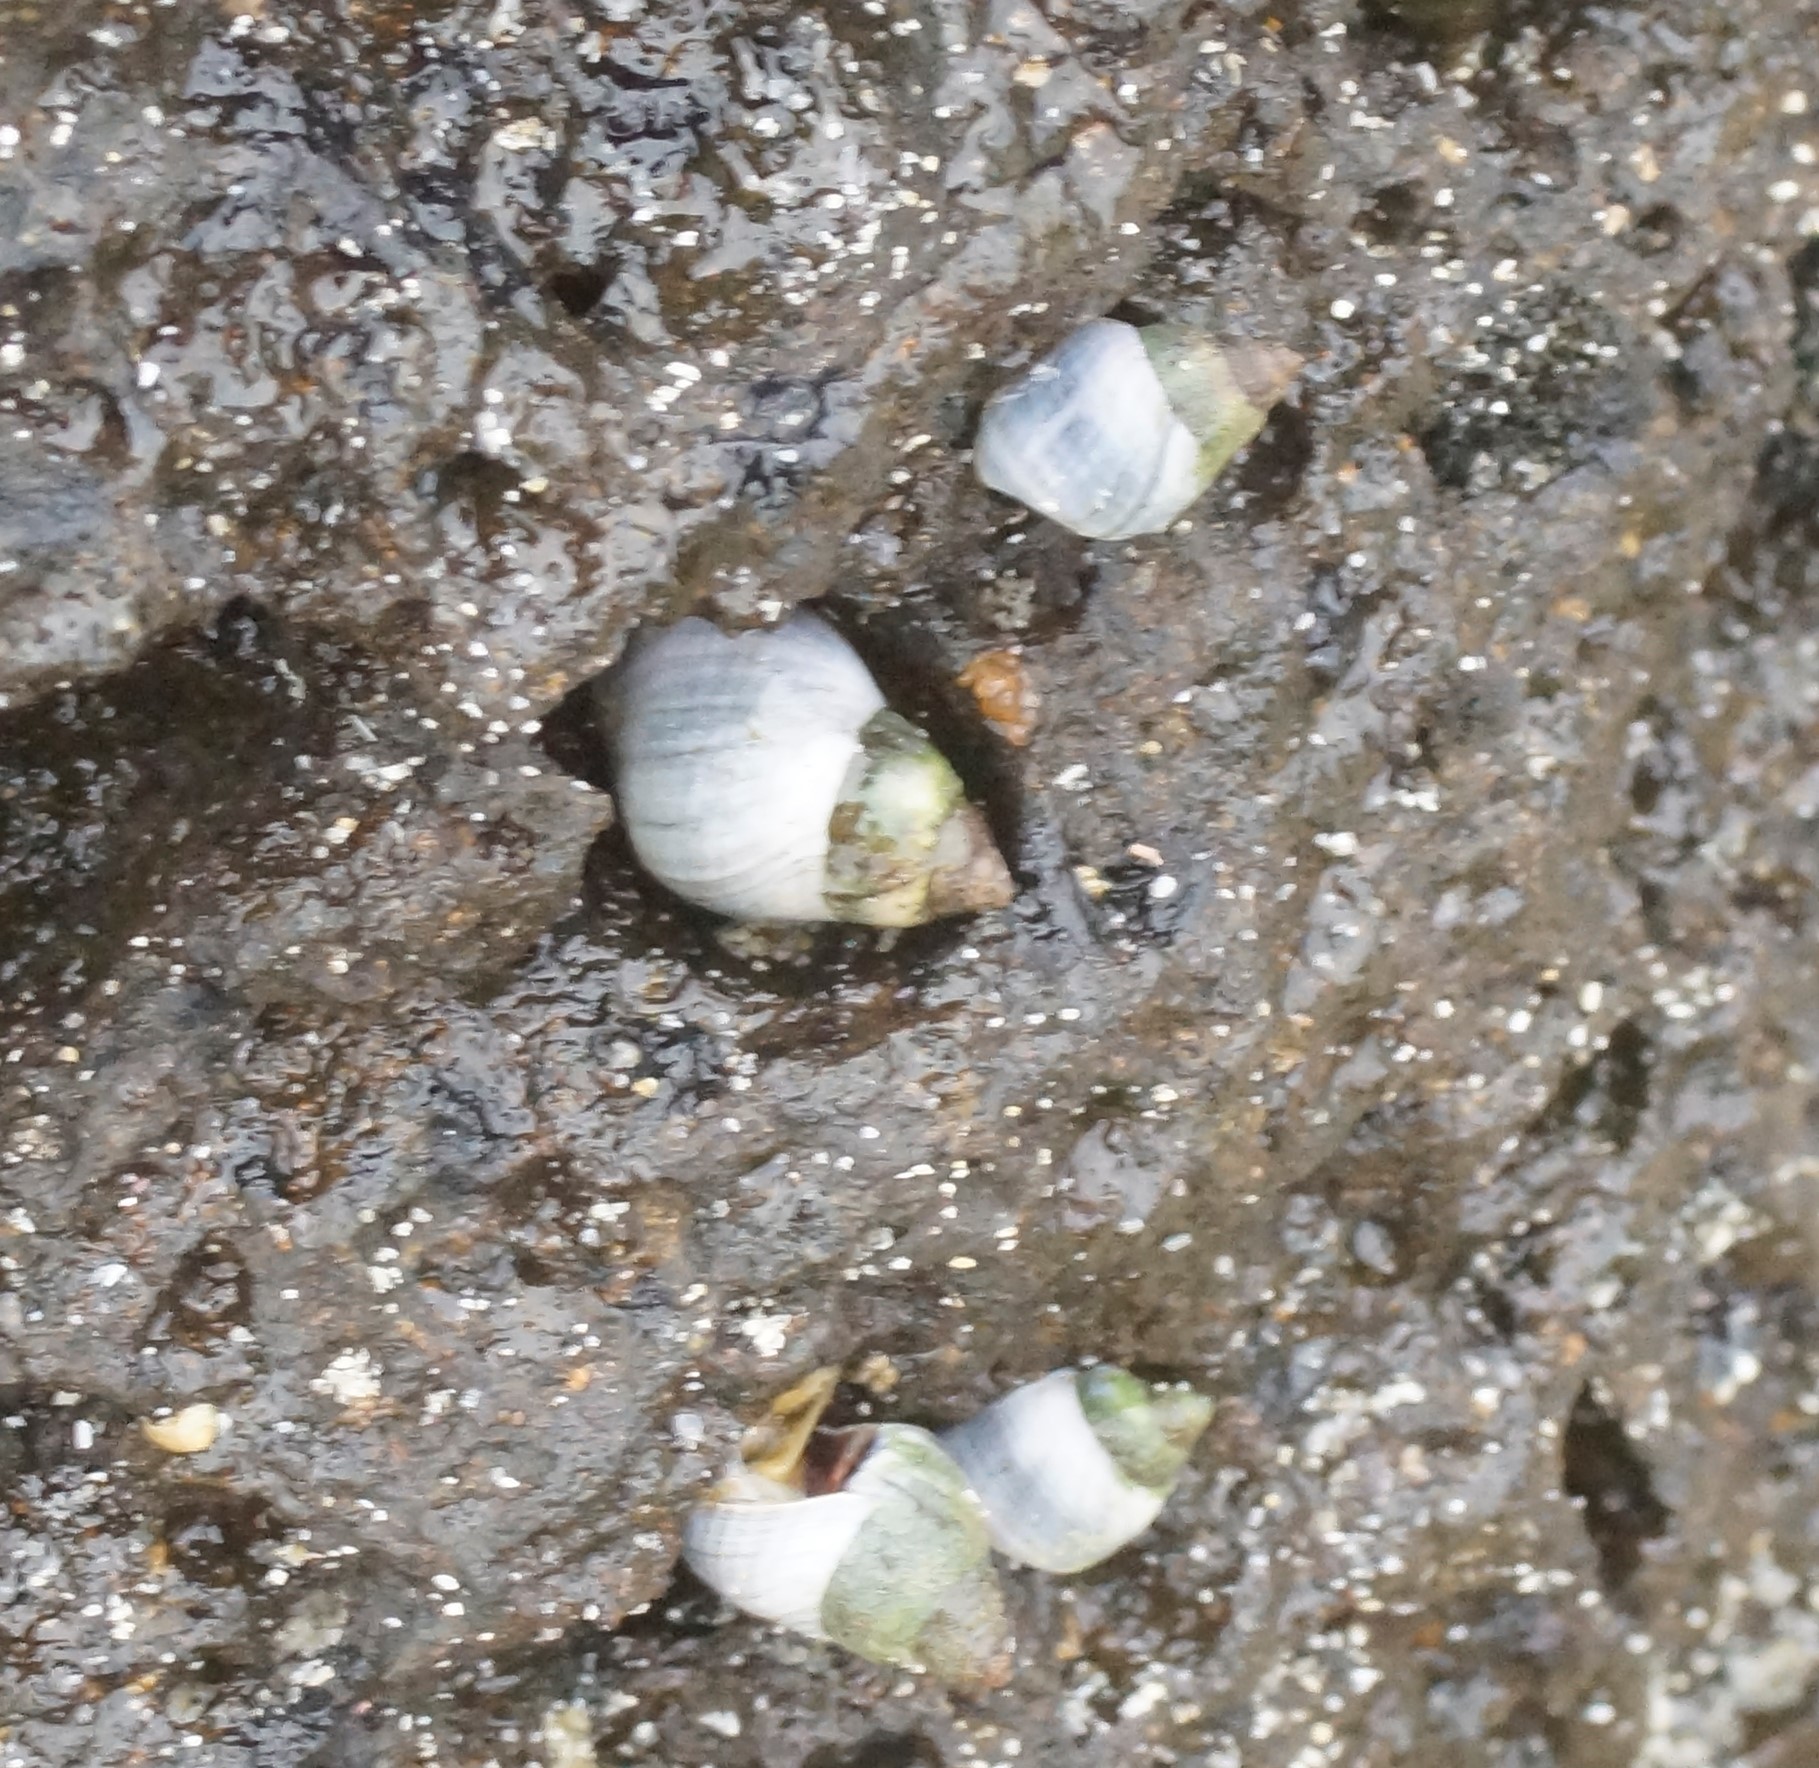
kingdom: Animalia
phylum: Mollusca
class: Gastropoda
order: Littorinimorpha
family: Littorinidae
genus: Austrolittorina
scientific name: Austrolittorina unifasciata
